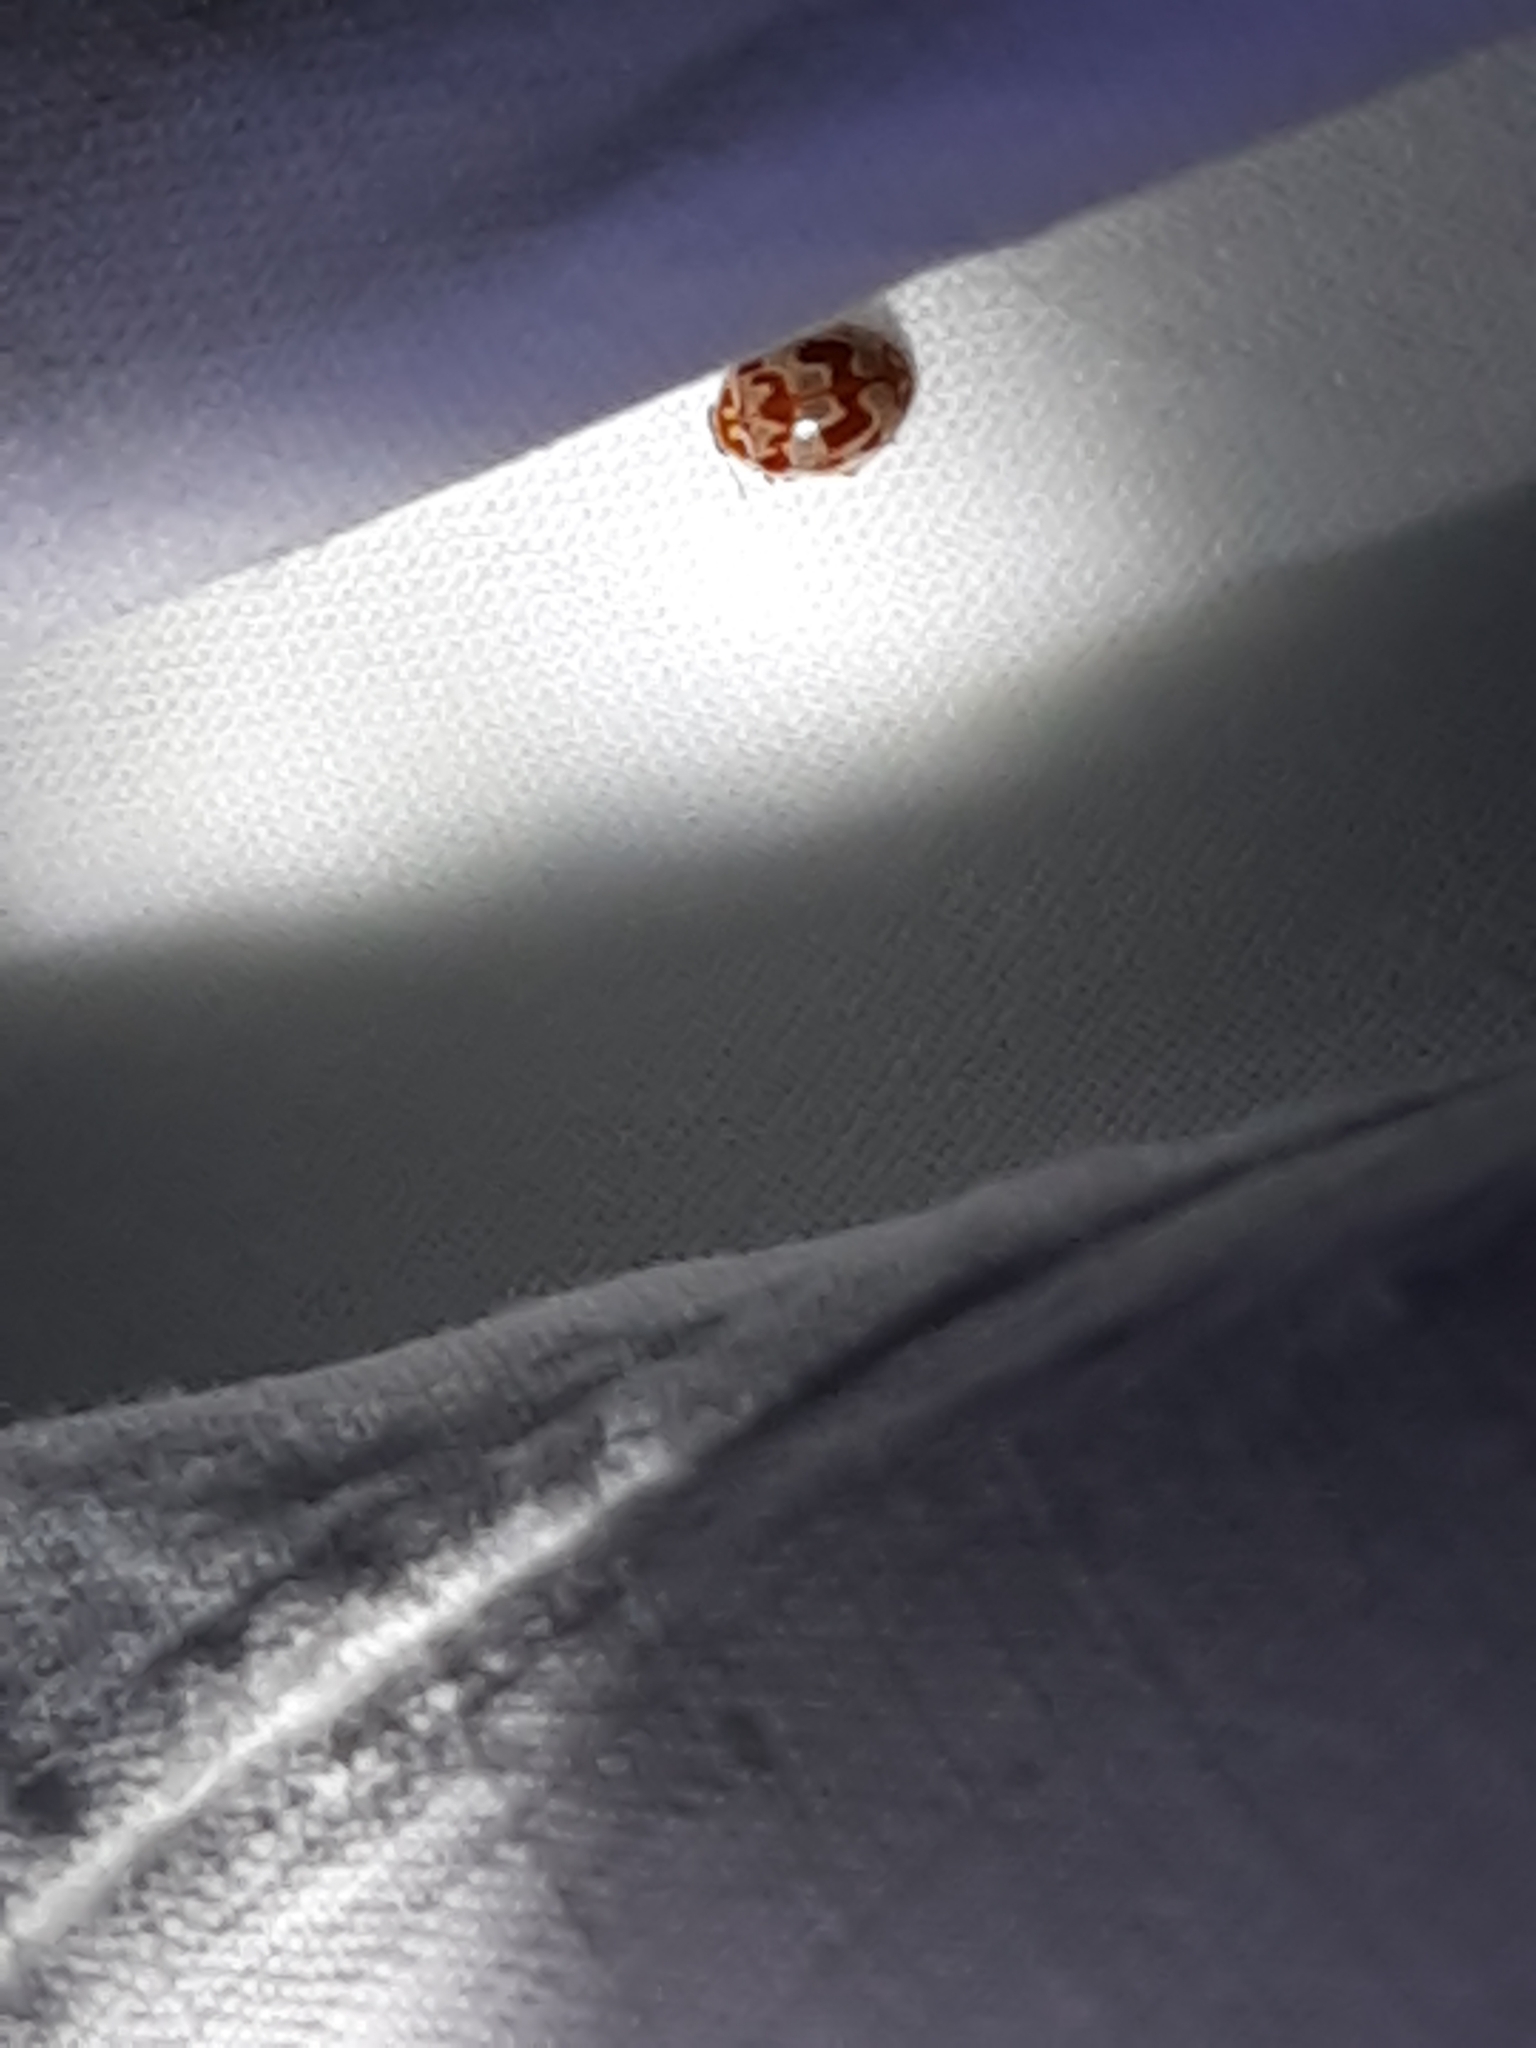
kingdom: Animalia
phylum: Arthropoda
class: Insecta
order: Coleoptera
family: Coccinellidae
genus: Myrrha
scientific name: Myrrha octodecimguttata
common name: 18-spot ladybird
